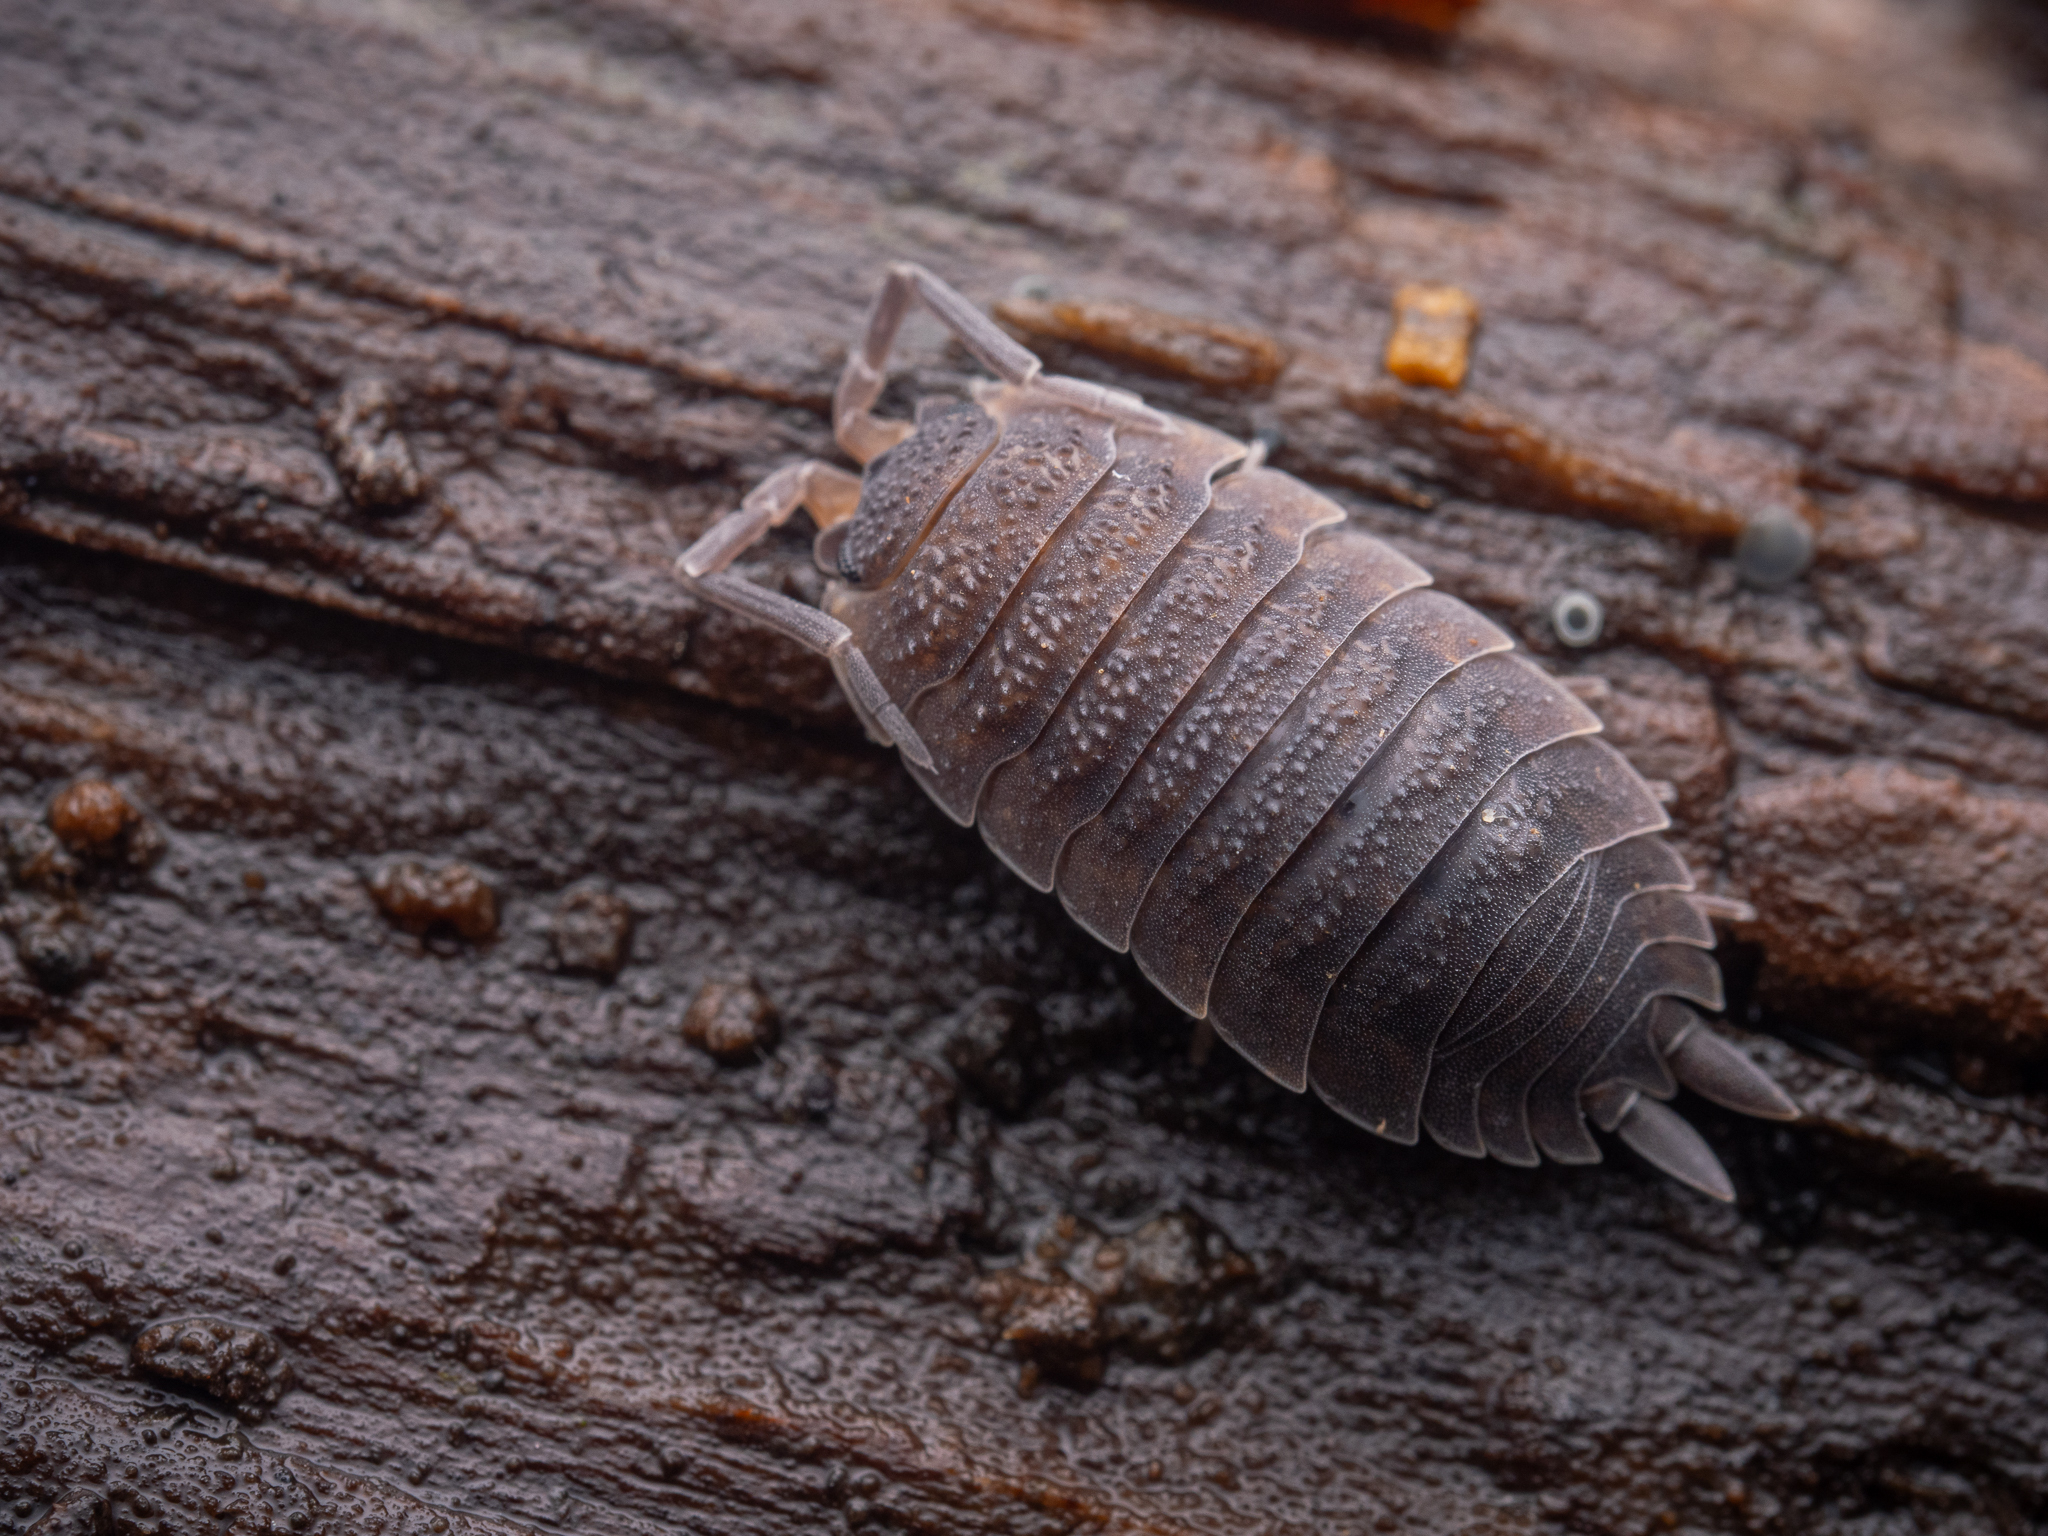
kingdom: Animalia
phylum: Arthropoda
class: Malacostraca
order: Isopoda
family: Porcellionidae
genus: Porcellio
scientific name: Porcellio scaber
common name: Common rough woodlouse
